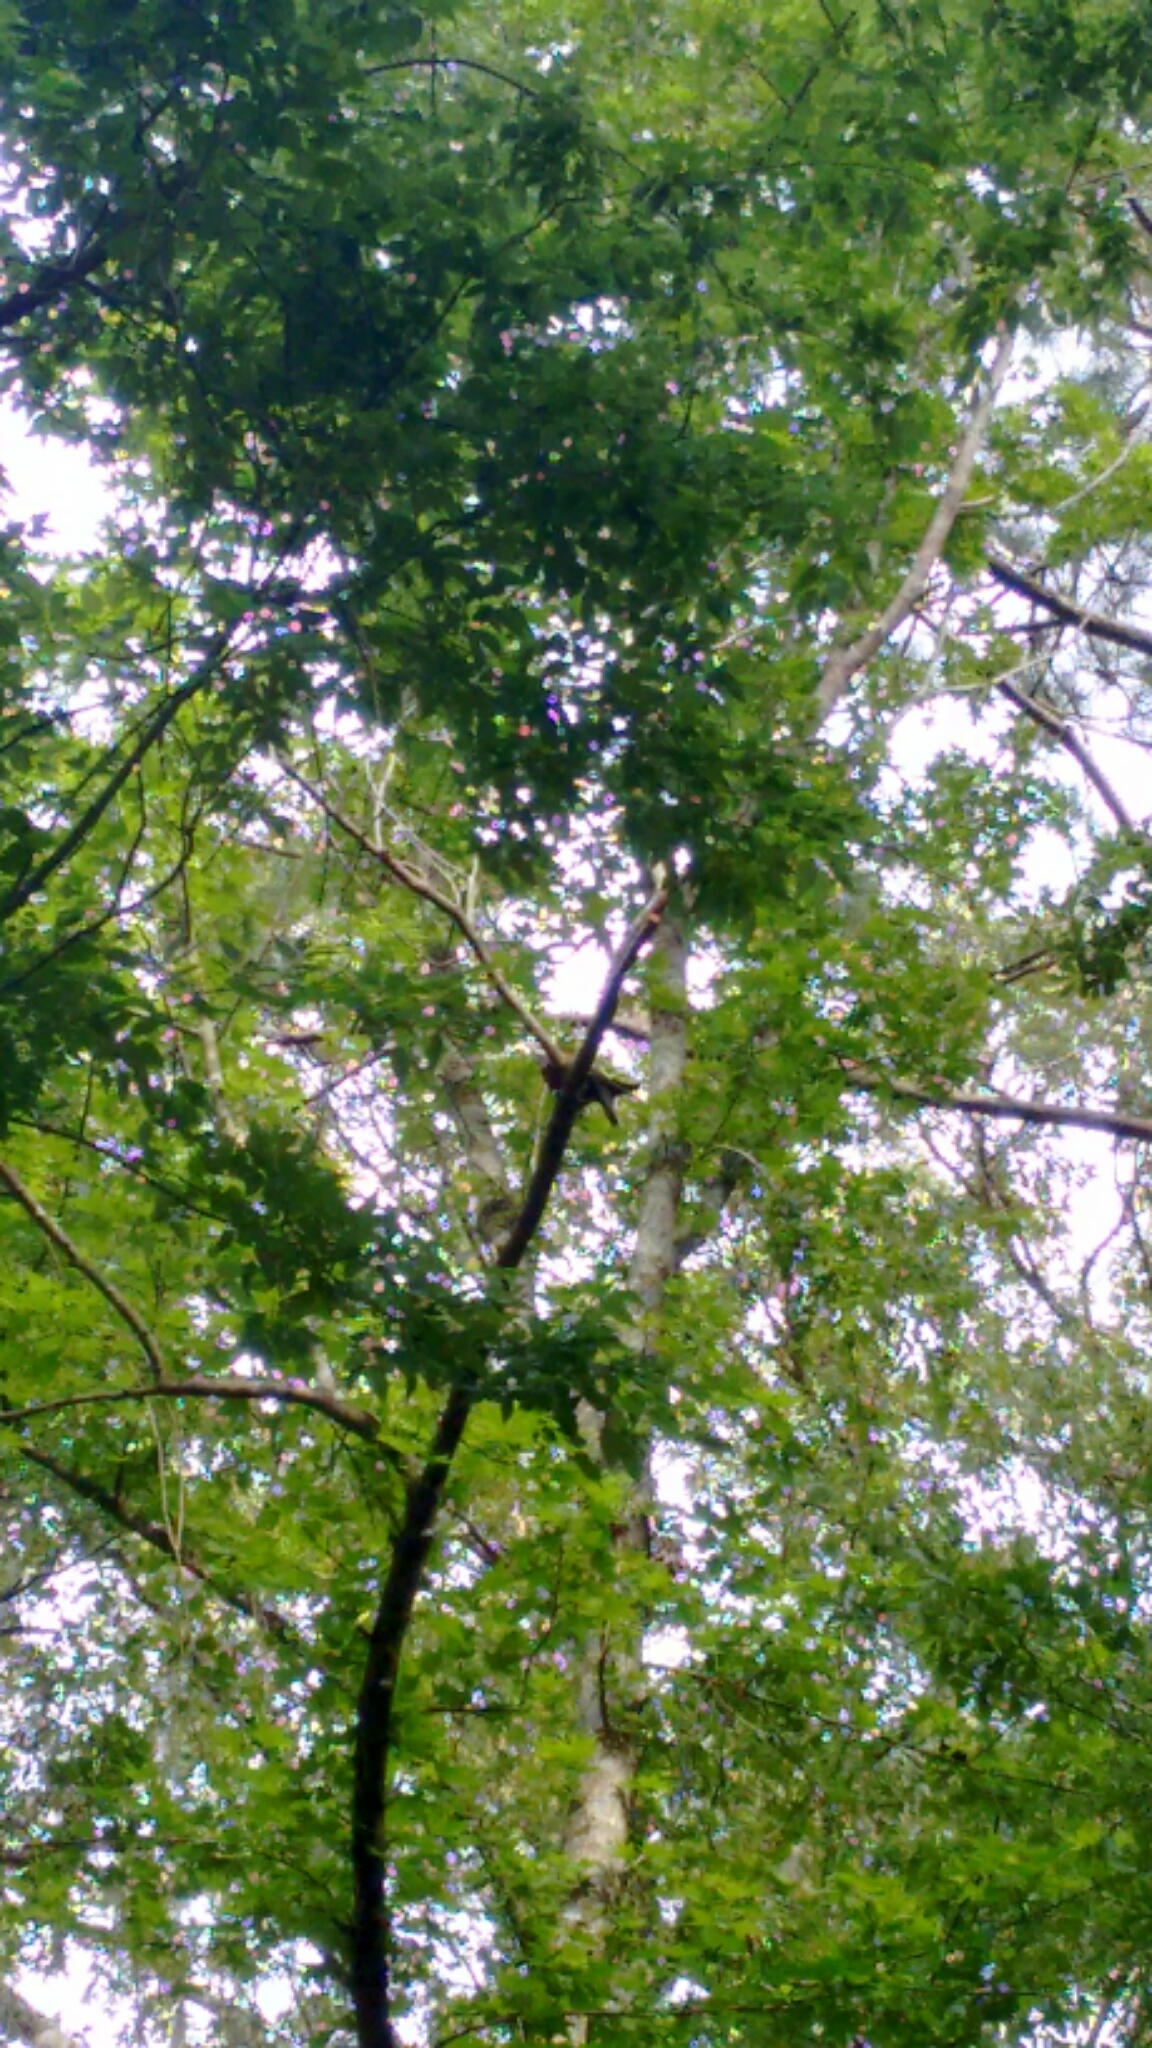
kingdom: Animalia
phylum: Chordata
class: Aves
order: Piciformes
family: Picidae
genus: Dryocopus
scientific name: Dryocopus pileatus
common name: Pileated woodpecker
